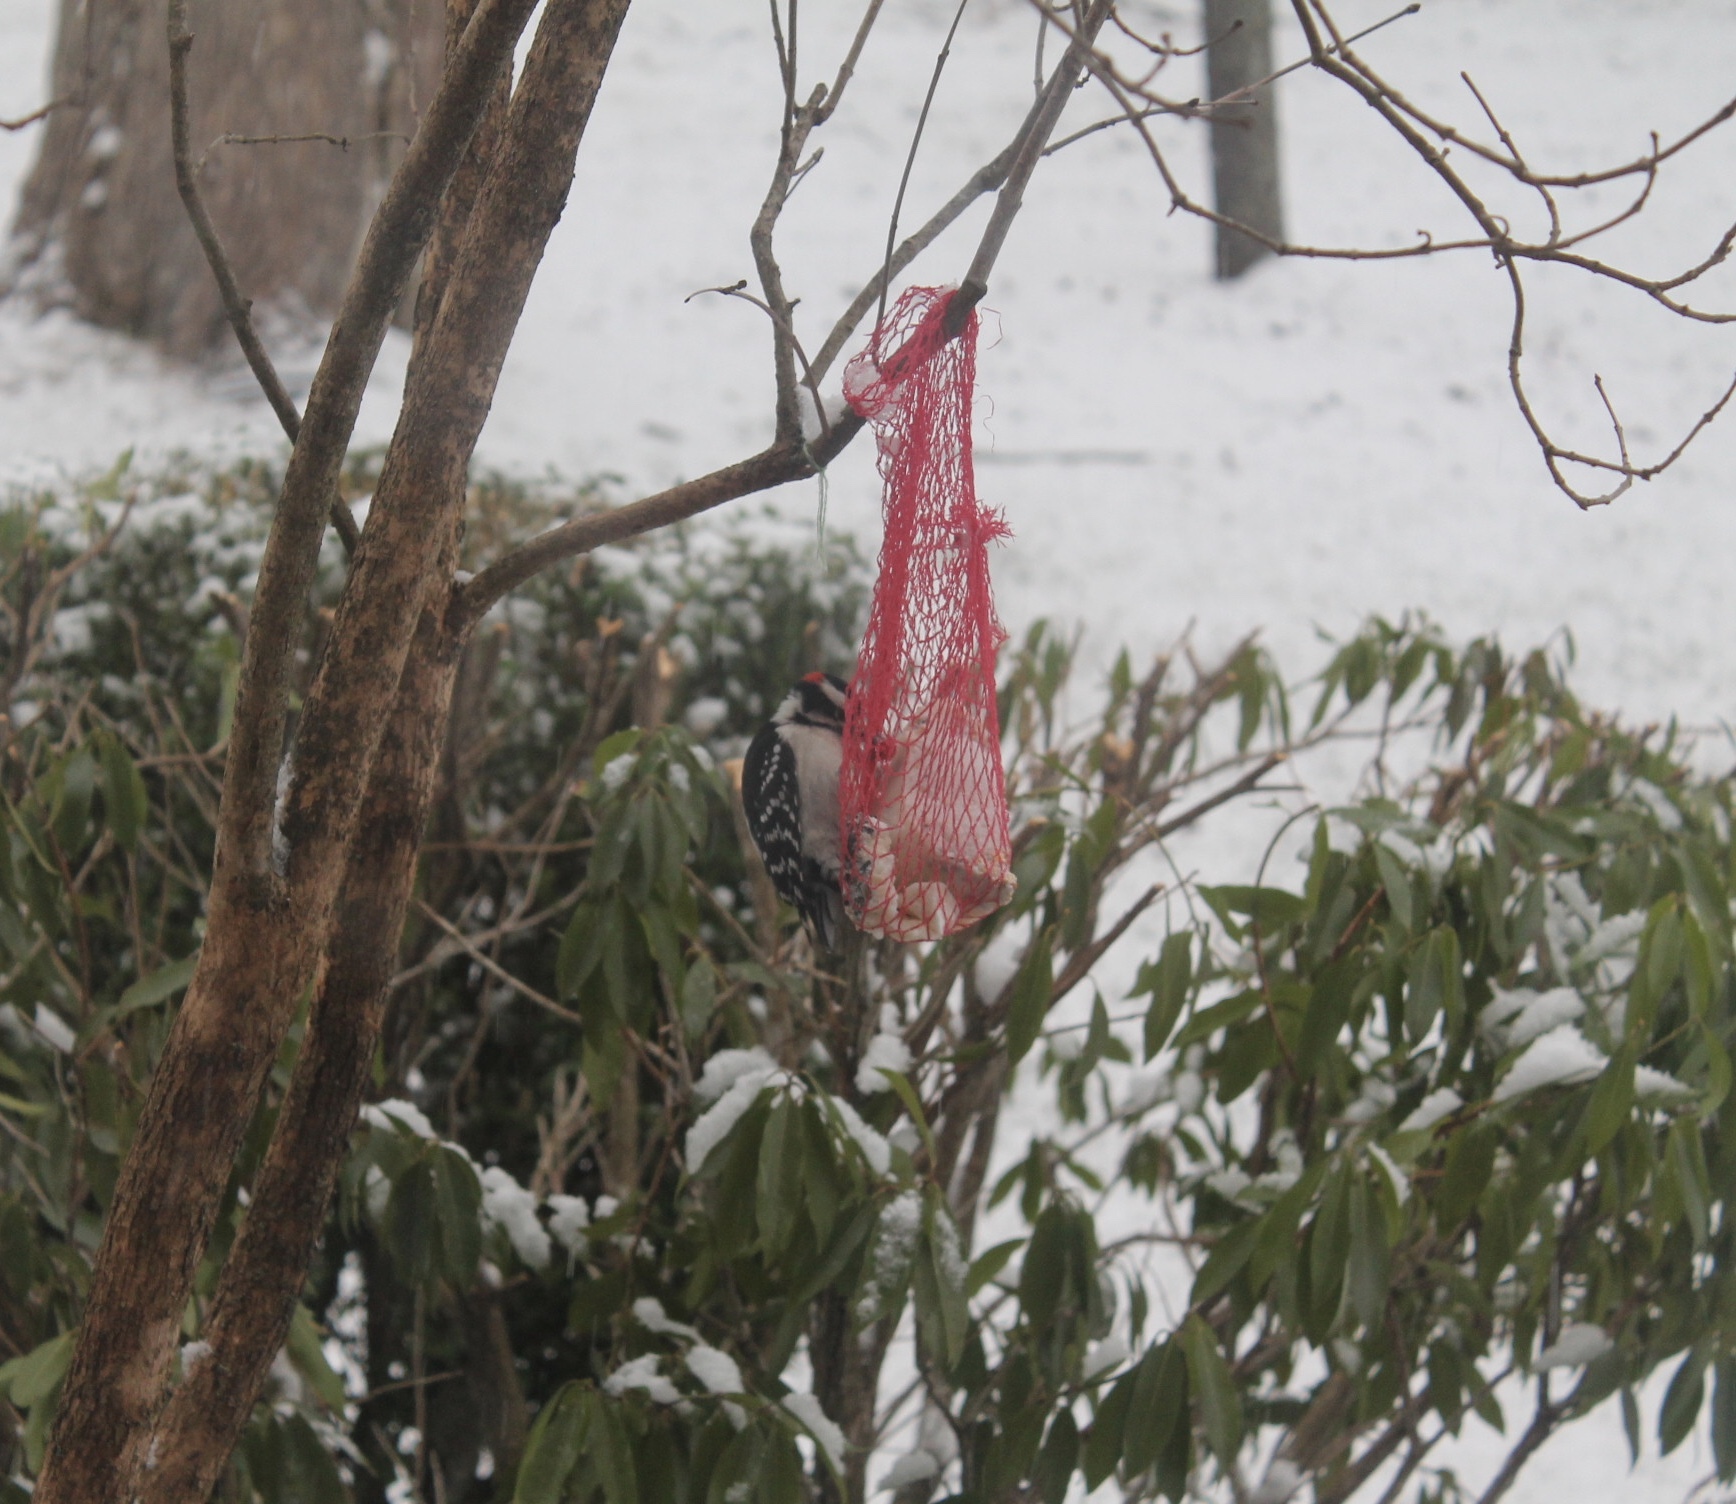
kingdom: Animalia
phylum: Chordata
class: Aves
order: Piciformes
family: Picidae
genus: Dryobates
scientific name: Dryobates pubescens
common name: Downy woodpecker
